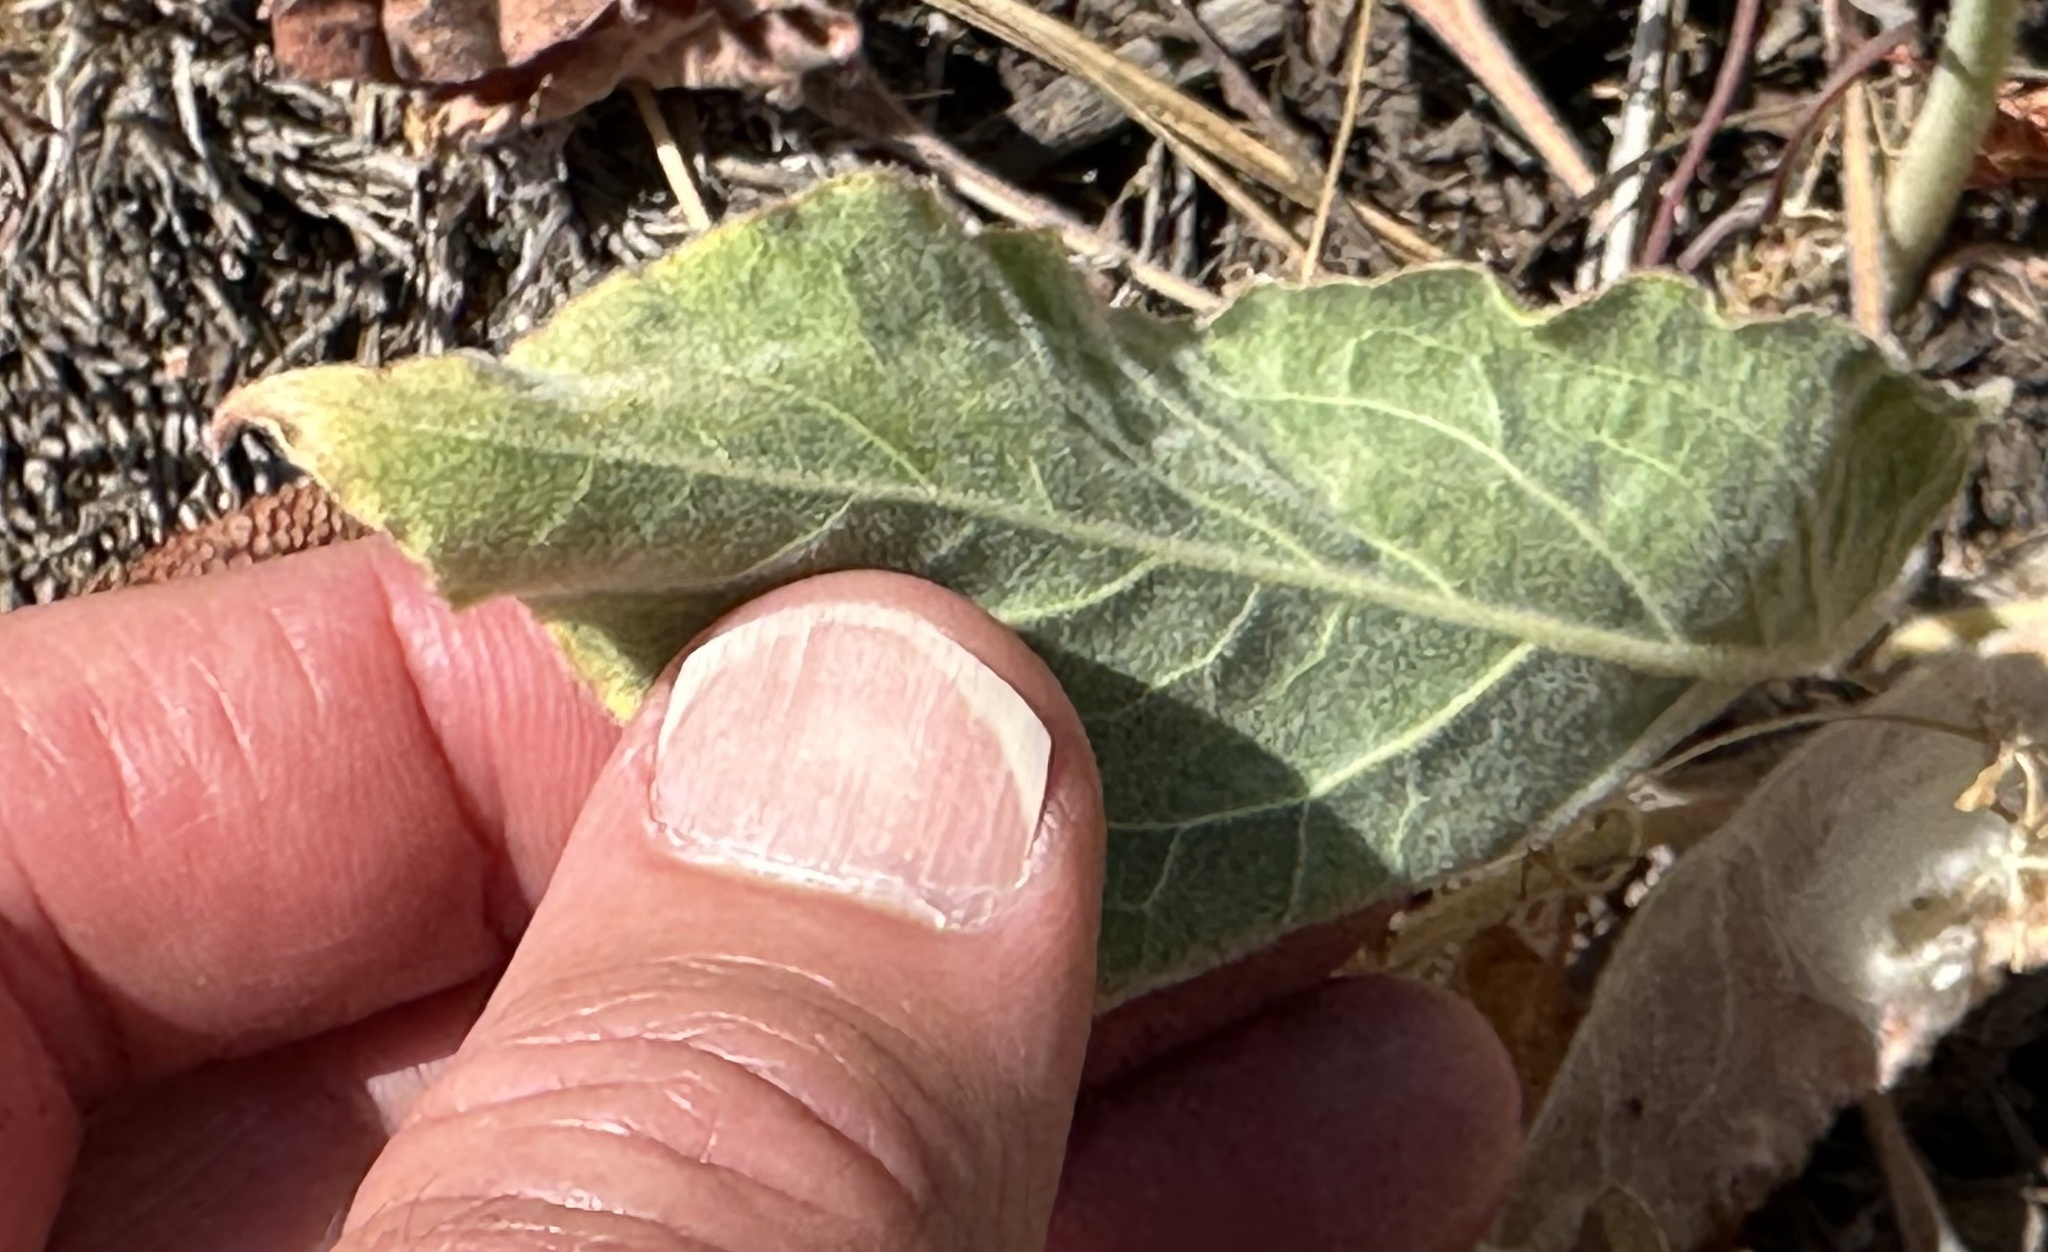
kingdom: Plantae
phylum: Tracheophyta
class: Magnoliopsida
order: Caryophyllales
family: Polygonaceae
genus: Eriogonum
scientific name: Eriogonum elatum
